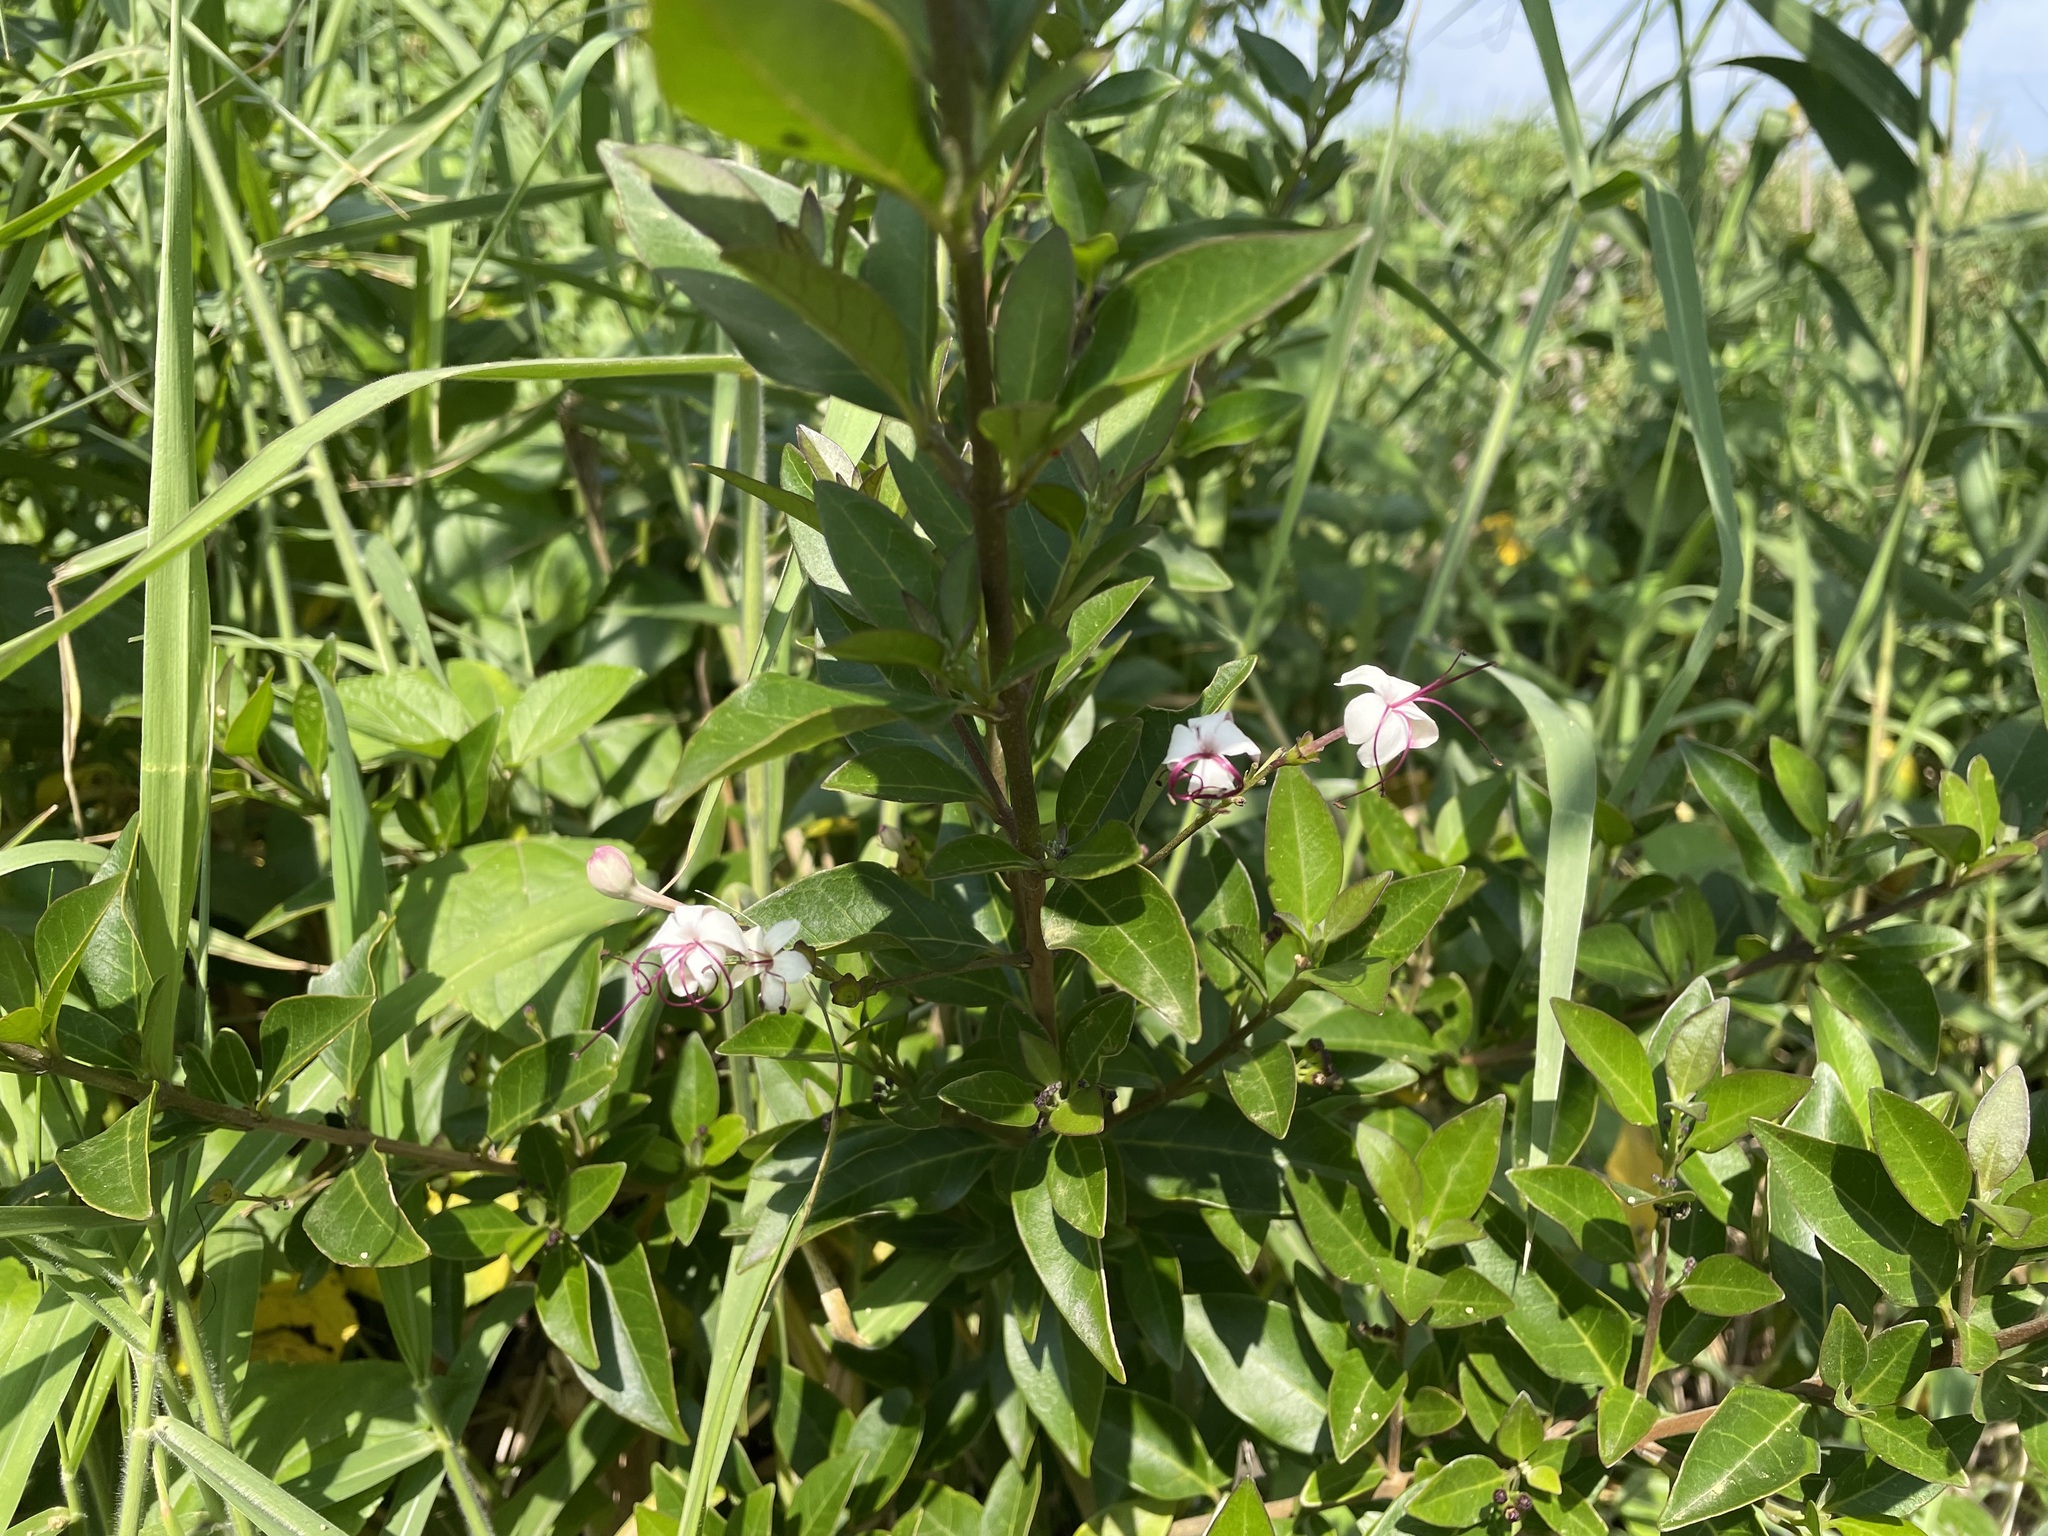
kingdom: Plantae
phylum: Tracheophyta
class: Magnoliopsida
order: Lamiales
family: Lamiaceae
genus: Volkameria
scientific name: Volkameria inermis
